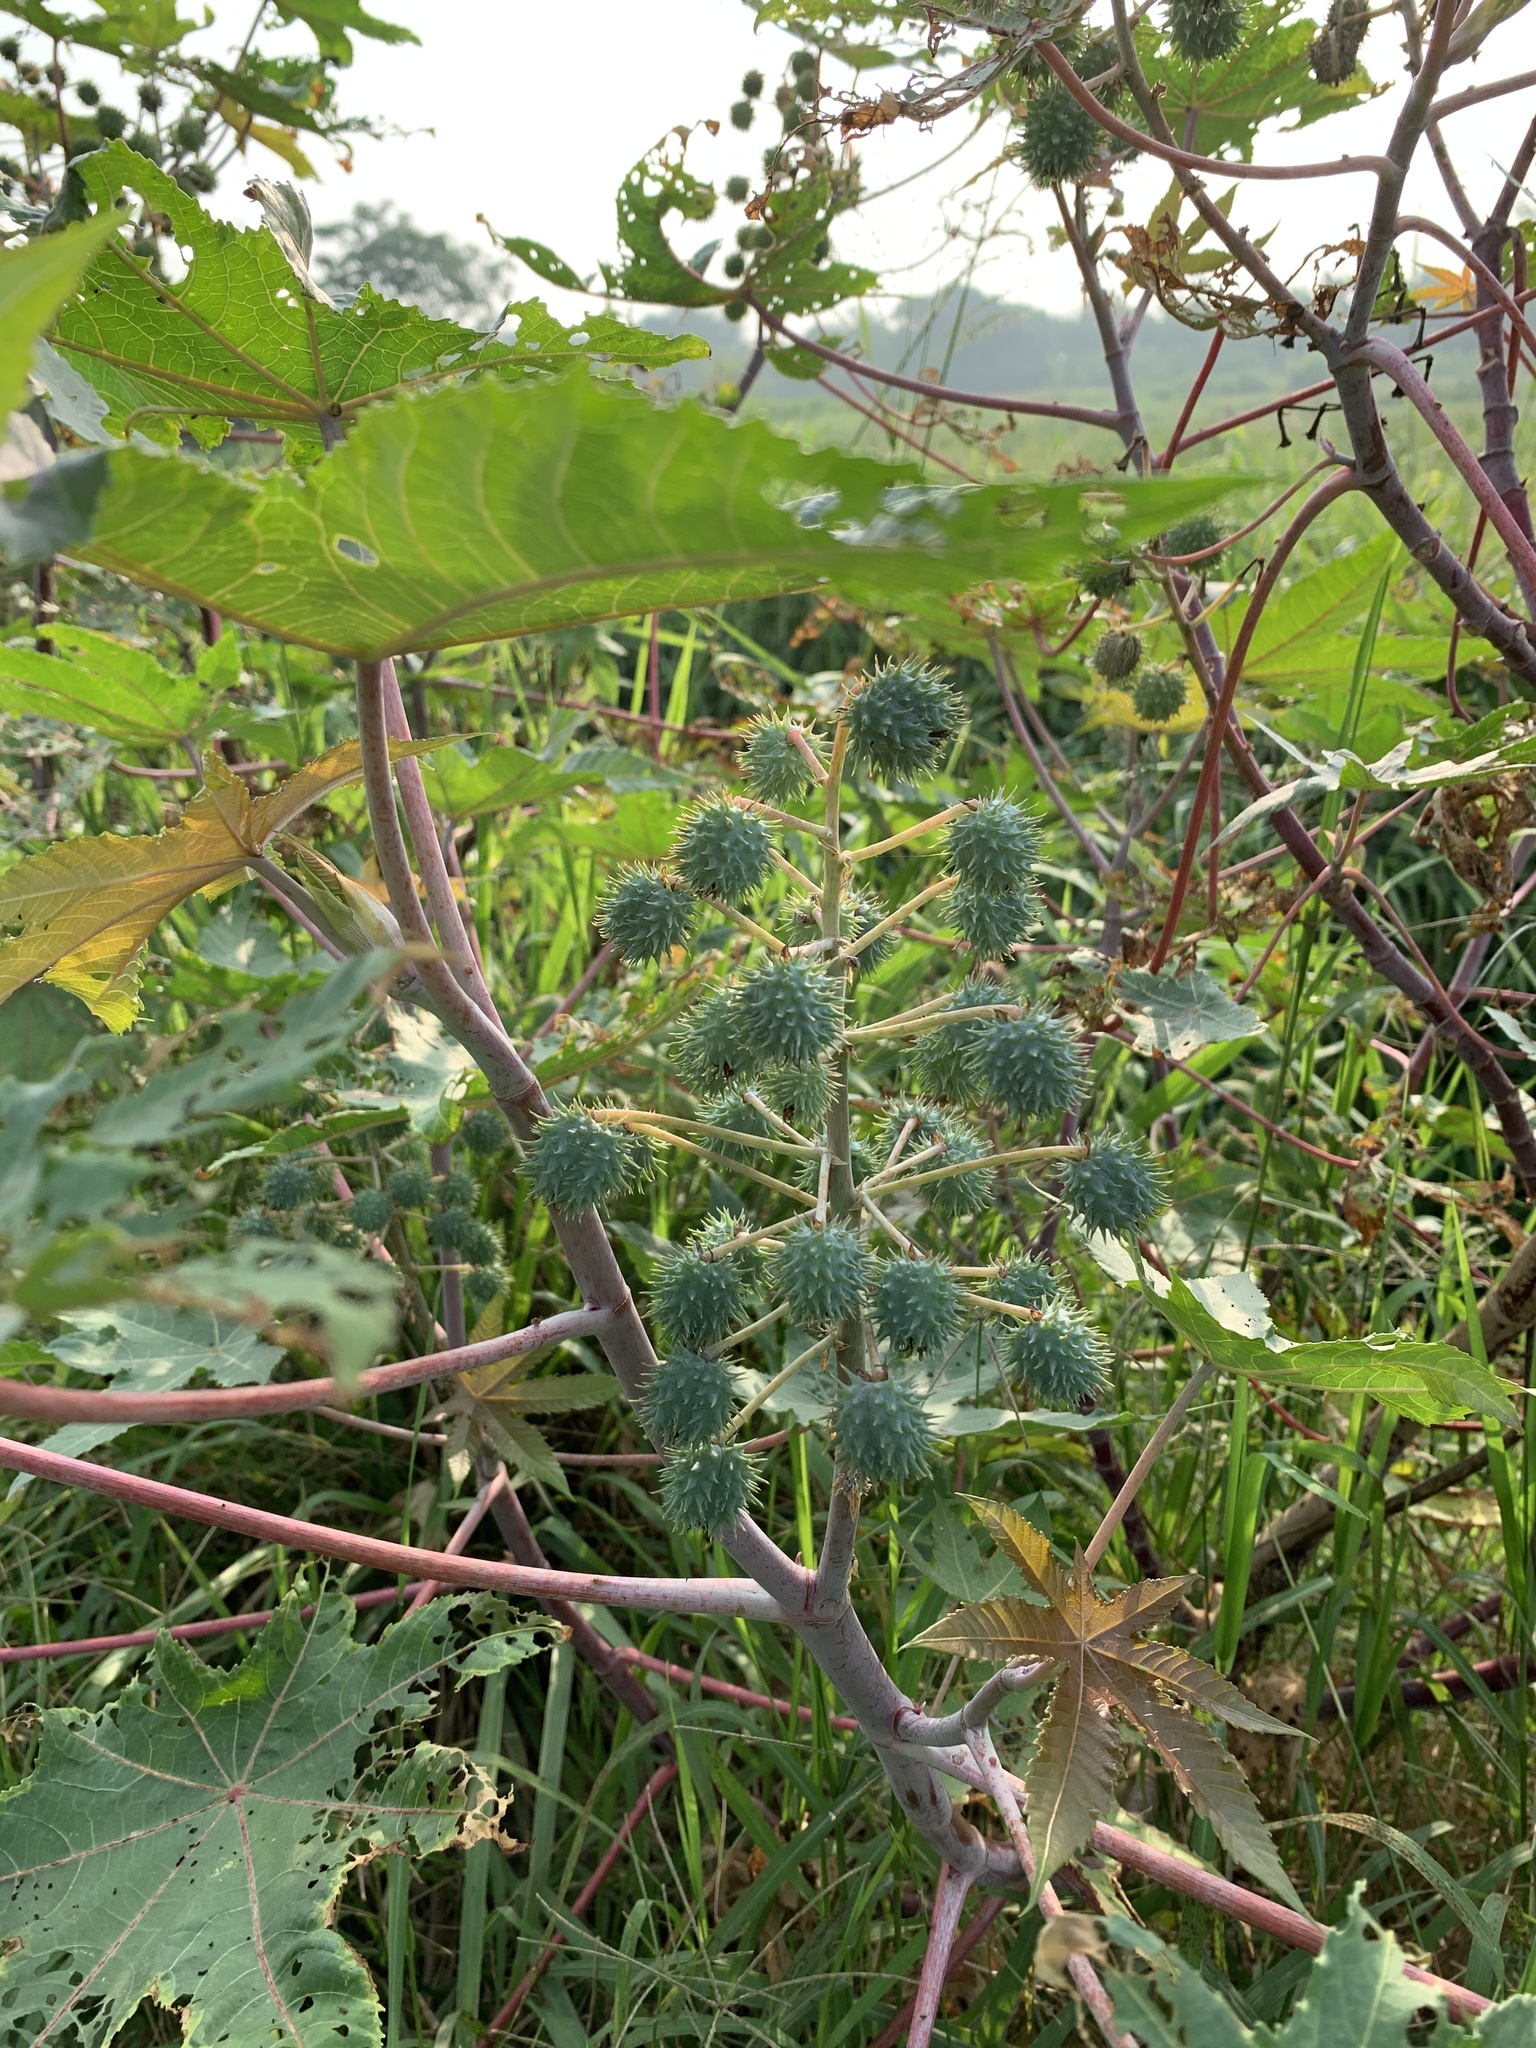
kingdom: Plantae
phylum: Tracheophyta
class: Magnoliopsida
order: Malpighiales
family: Euphorbiaceae
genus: Ricinus
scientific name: Ricinus communis
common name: Castor-oil-plant
